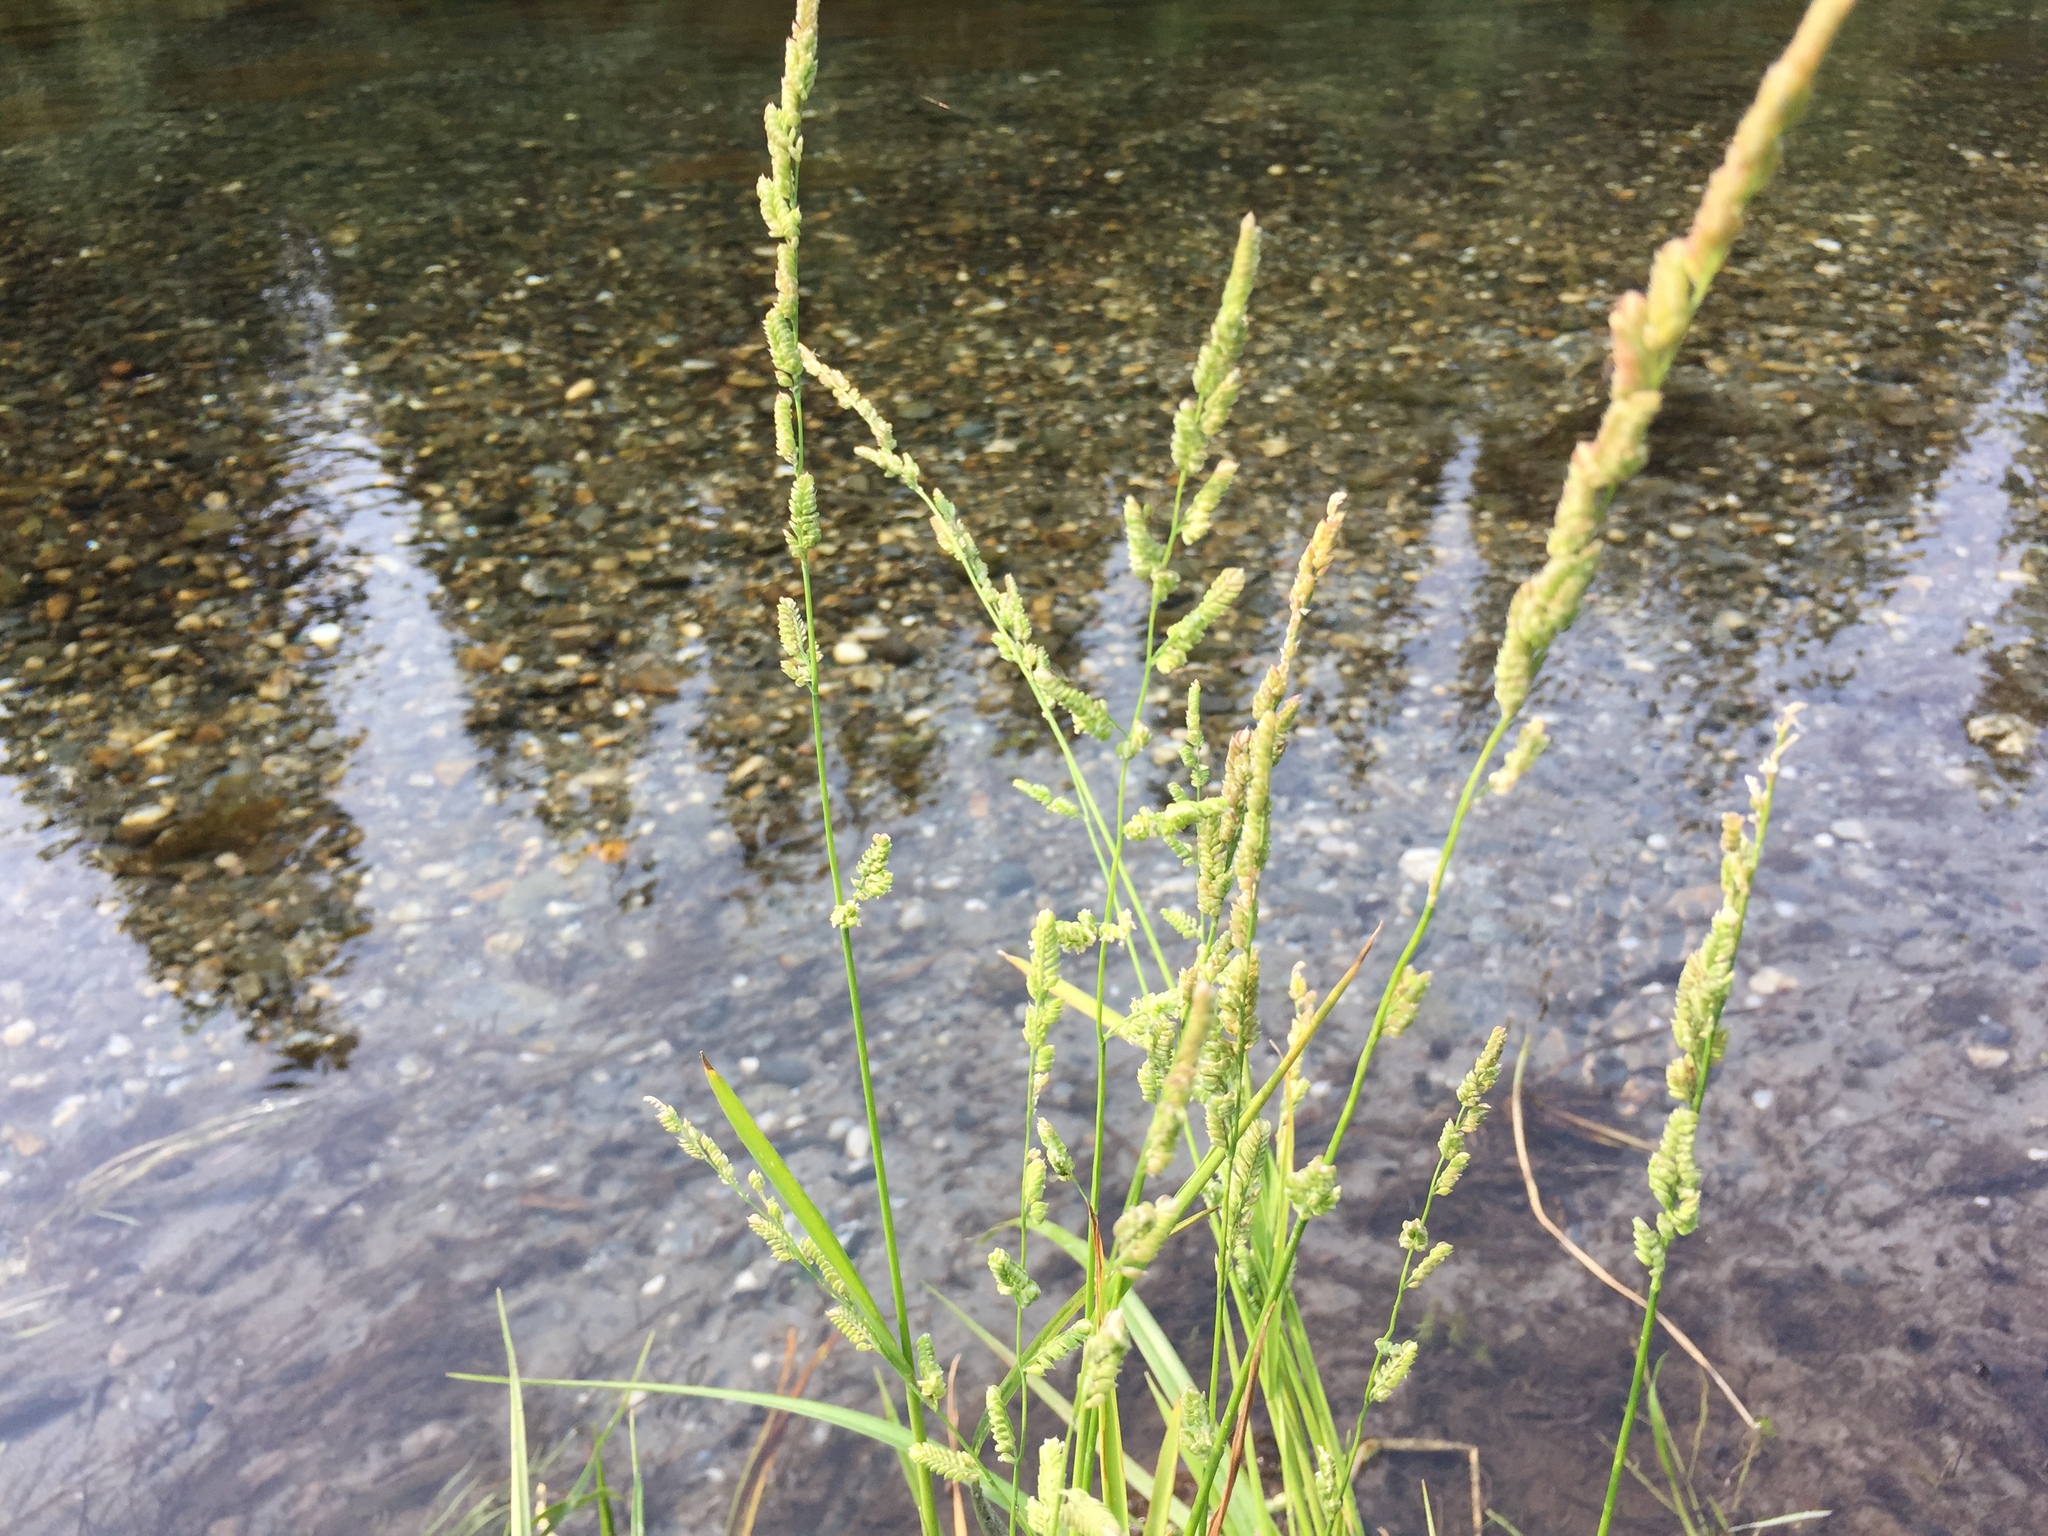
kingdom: Plantae
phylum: Tracheophyta
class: Liliopsida
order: Poales
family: Poaceae
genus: Beckmannia
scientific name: Beckmannia syzigachne
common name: American slough-grass
